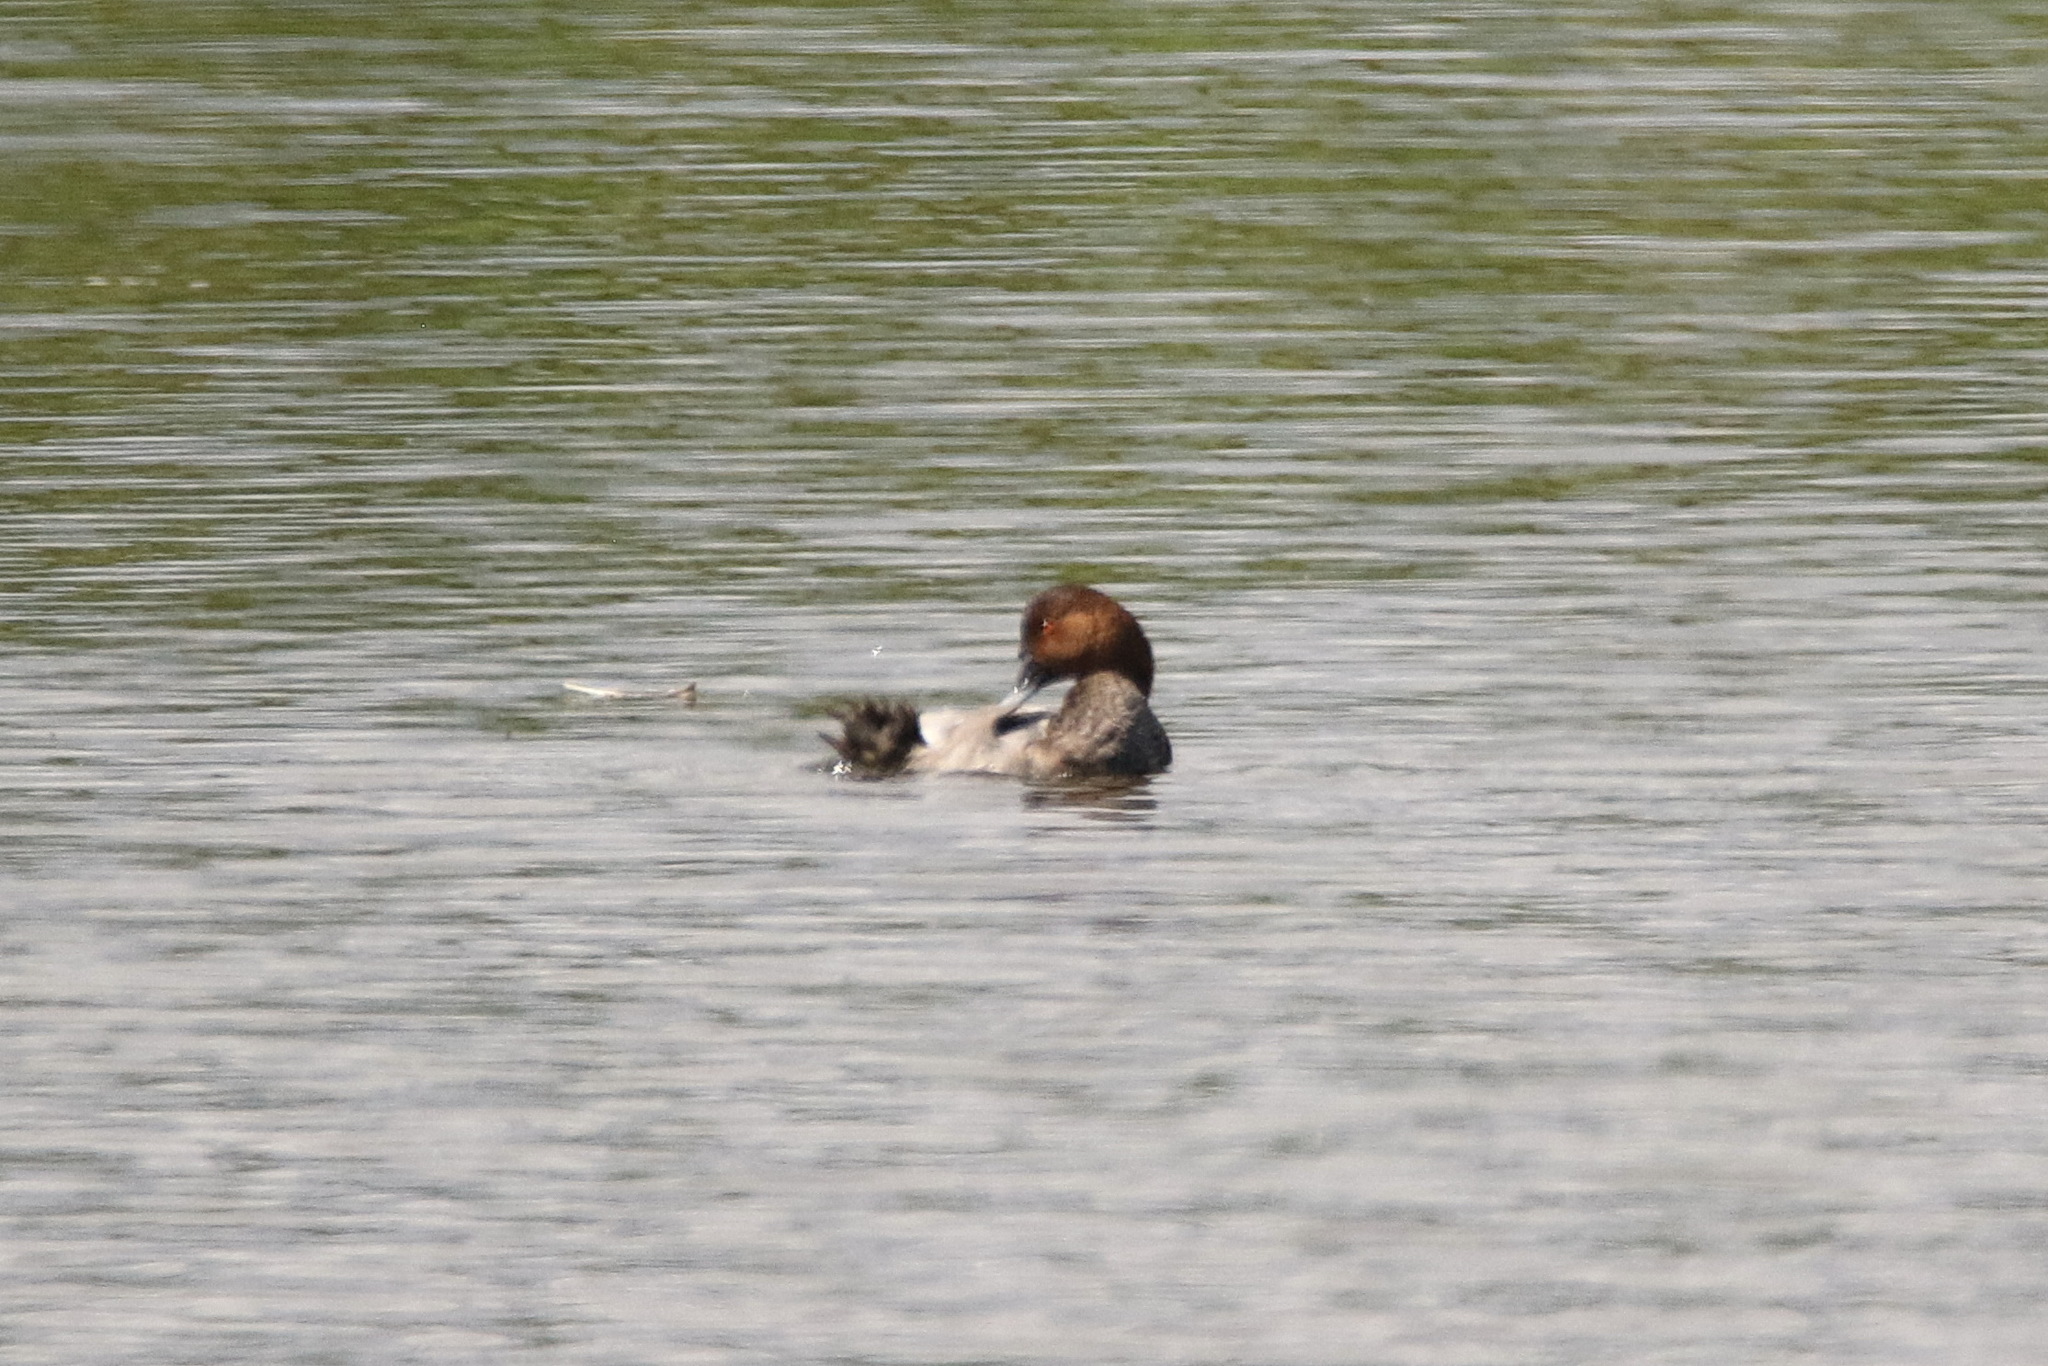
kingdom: Animalia
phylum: Chordata
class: Aves
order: Anseriformes
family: Anatidae
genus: Aythya
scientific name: Aythya ferina
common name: Common pochard
